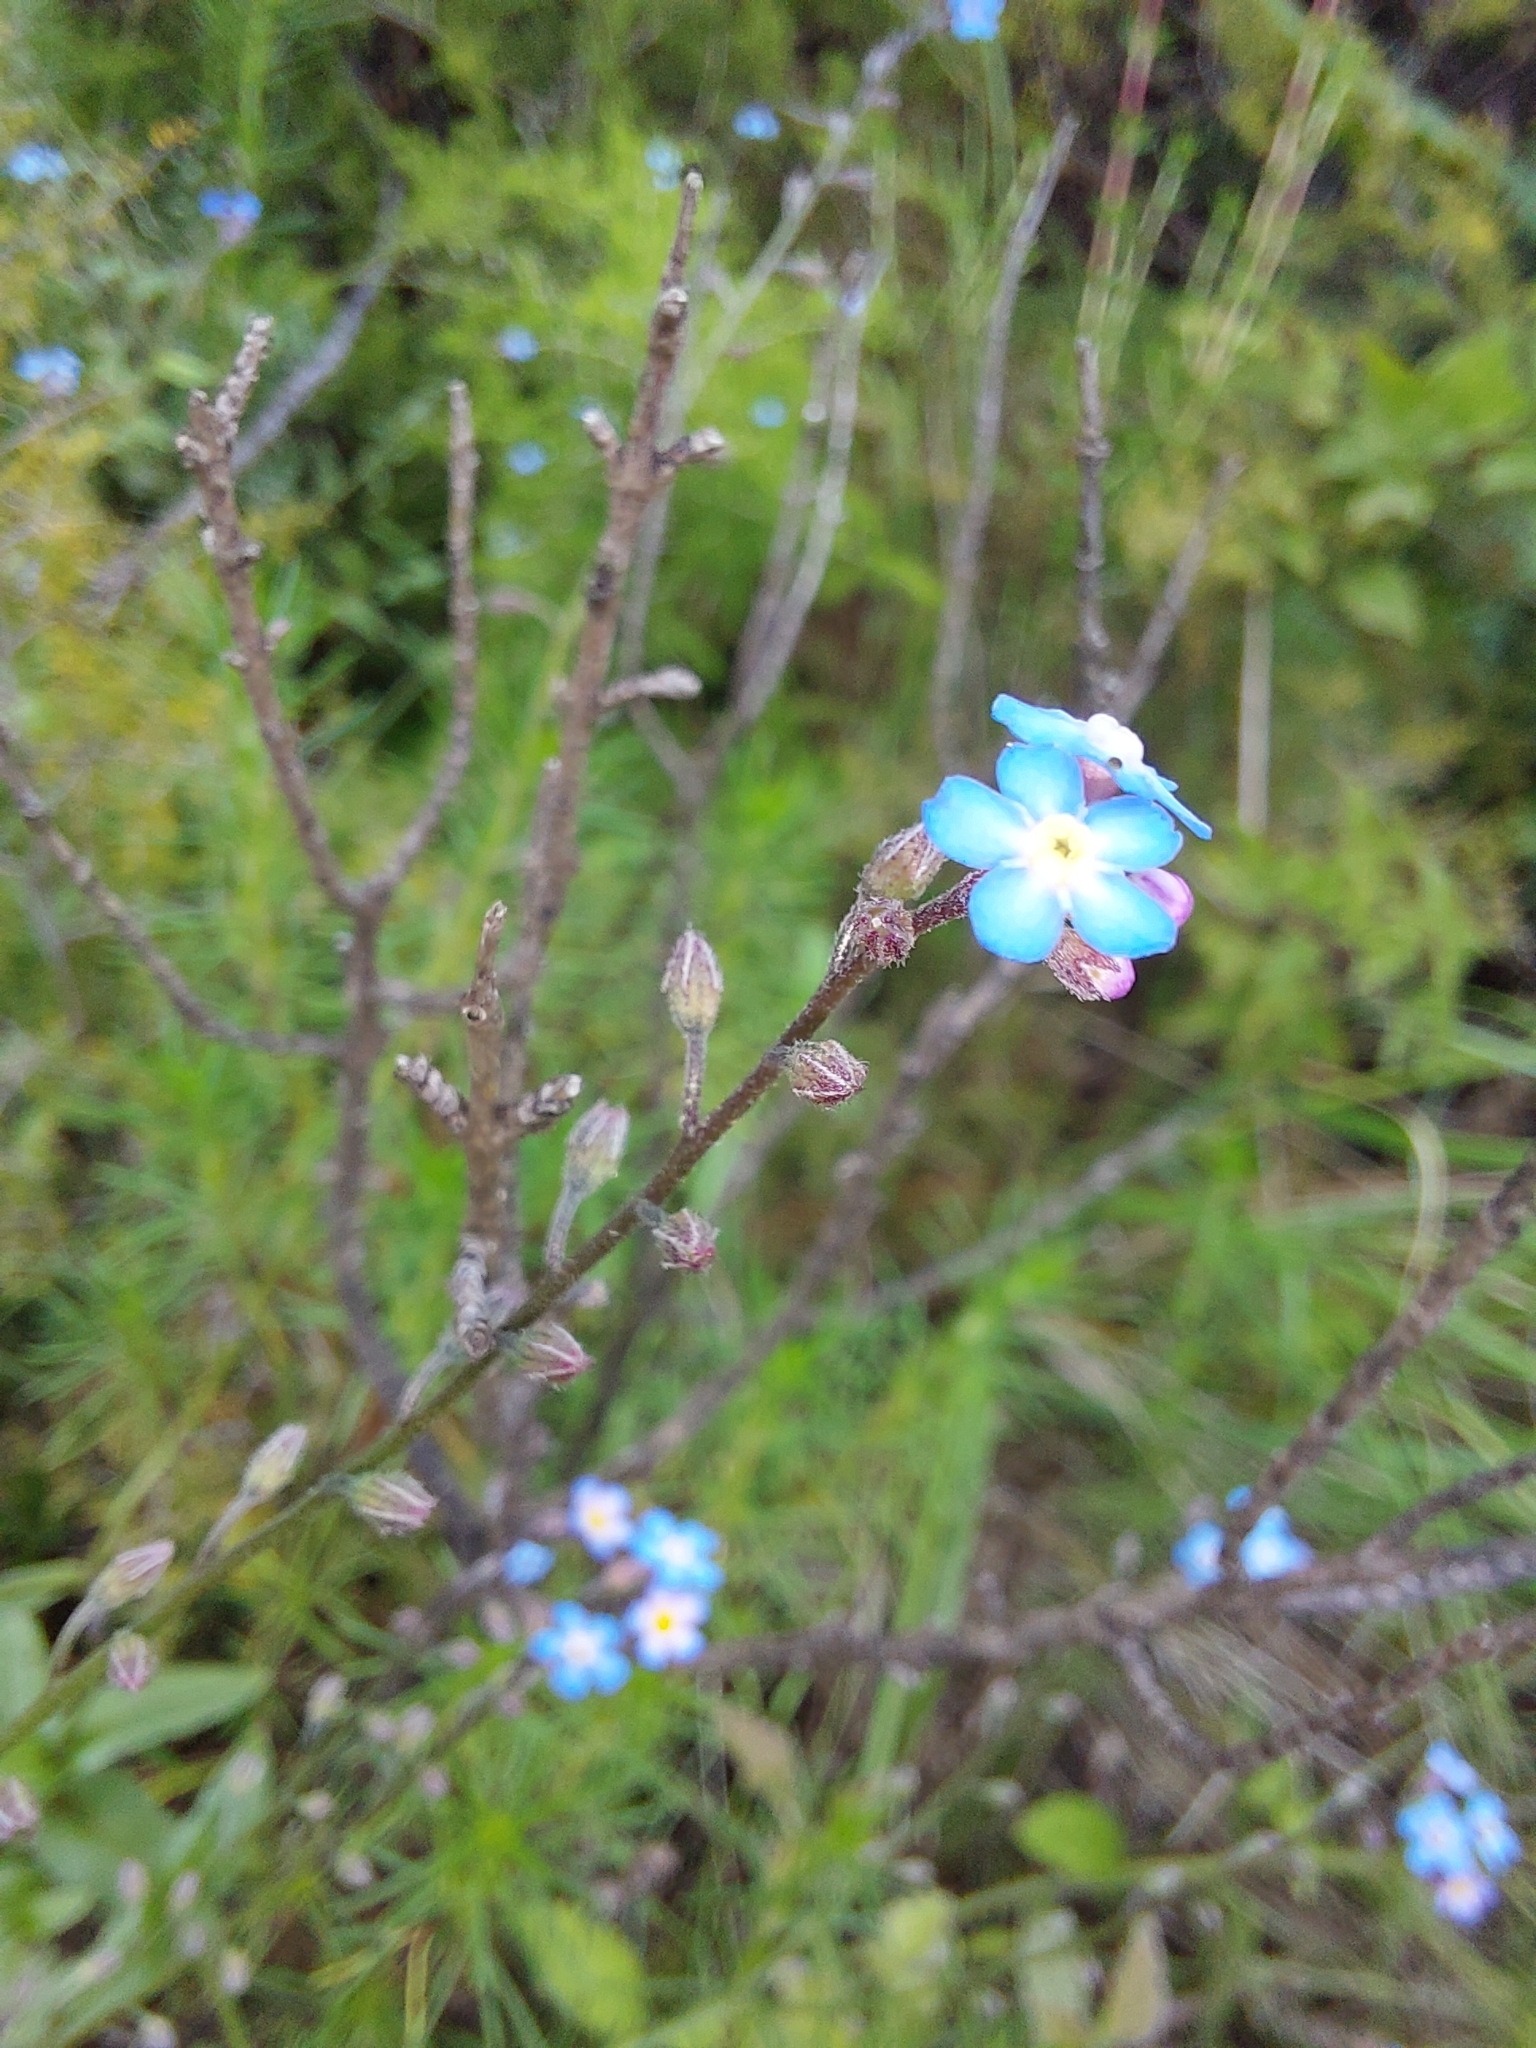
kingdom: Plantae
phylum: Tracheophyta
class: Magnoliopsida
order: Boraginales
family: Boraginaceae
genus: Myosotis
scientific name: Myosotis semiamplexicaulis
